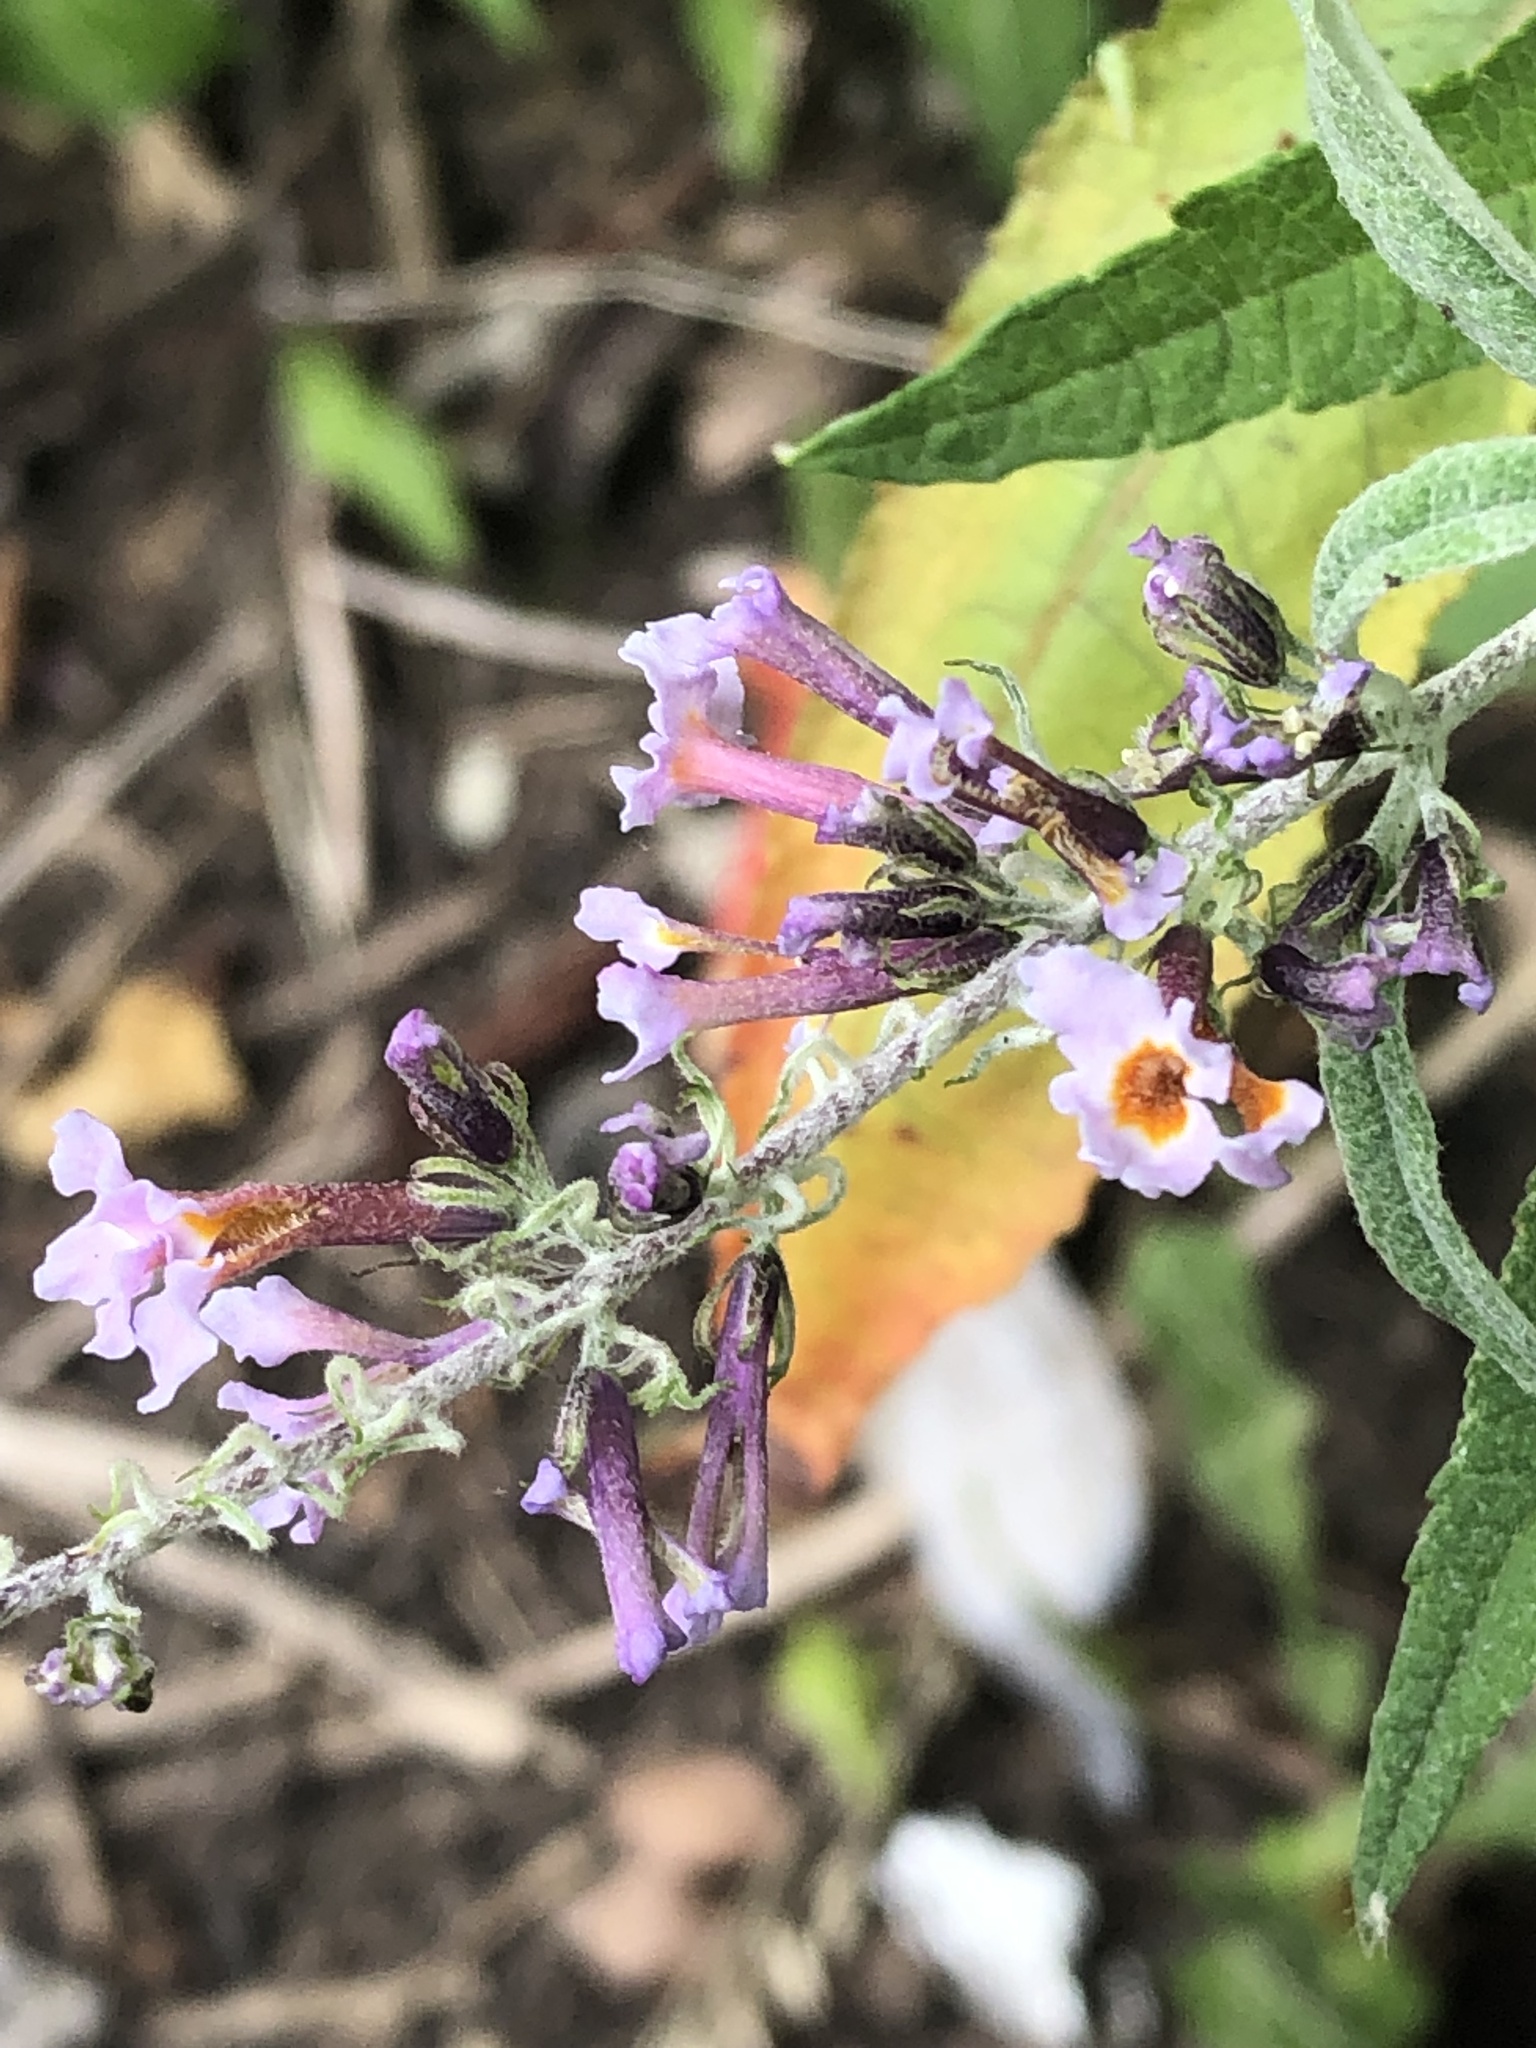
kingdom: Plantae
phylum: Tracheophyta
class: Magnoliopsida
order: Lamiales
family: Scrophulariaceae
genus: Buddleja
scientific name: Buddleja davidii
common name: Butterfly-bush
